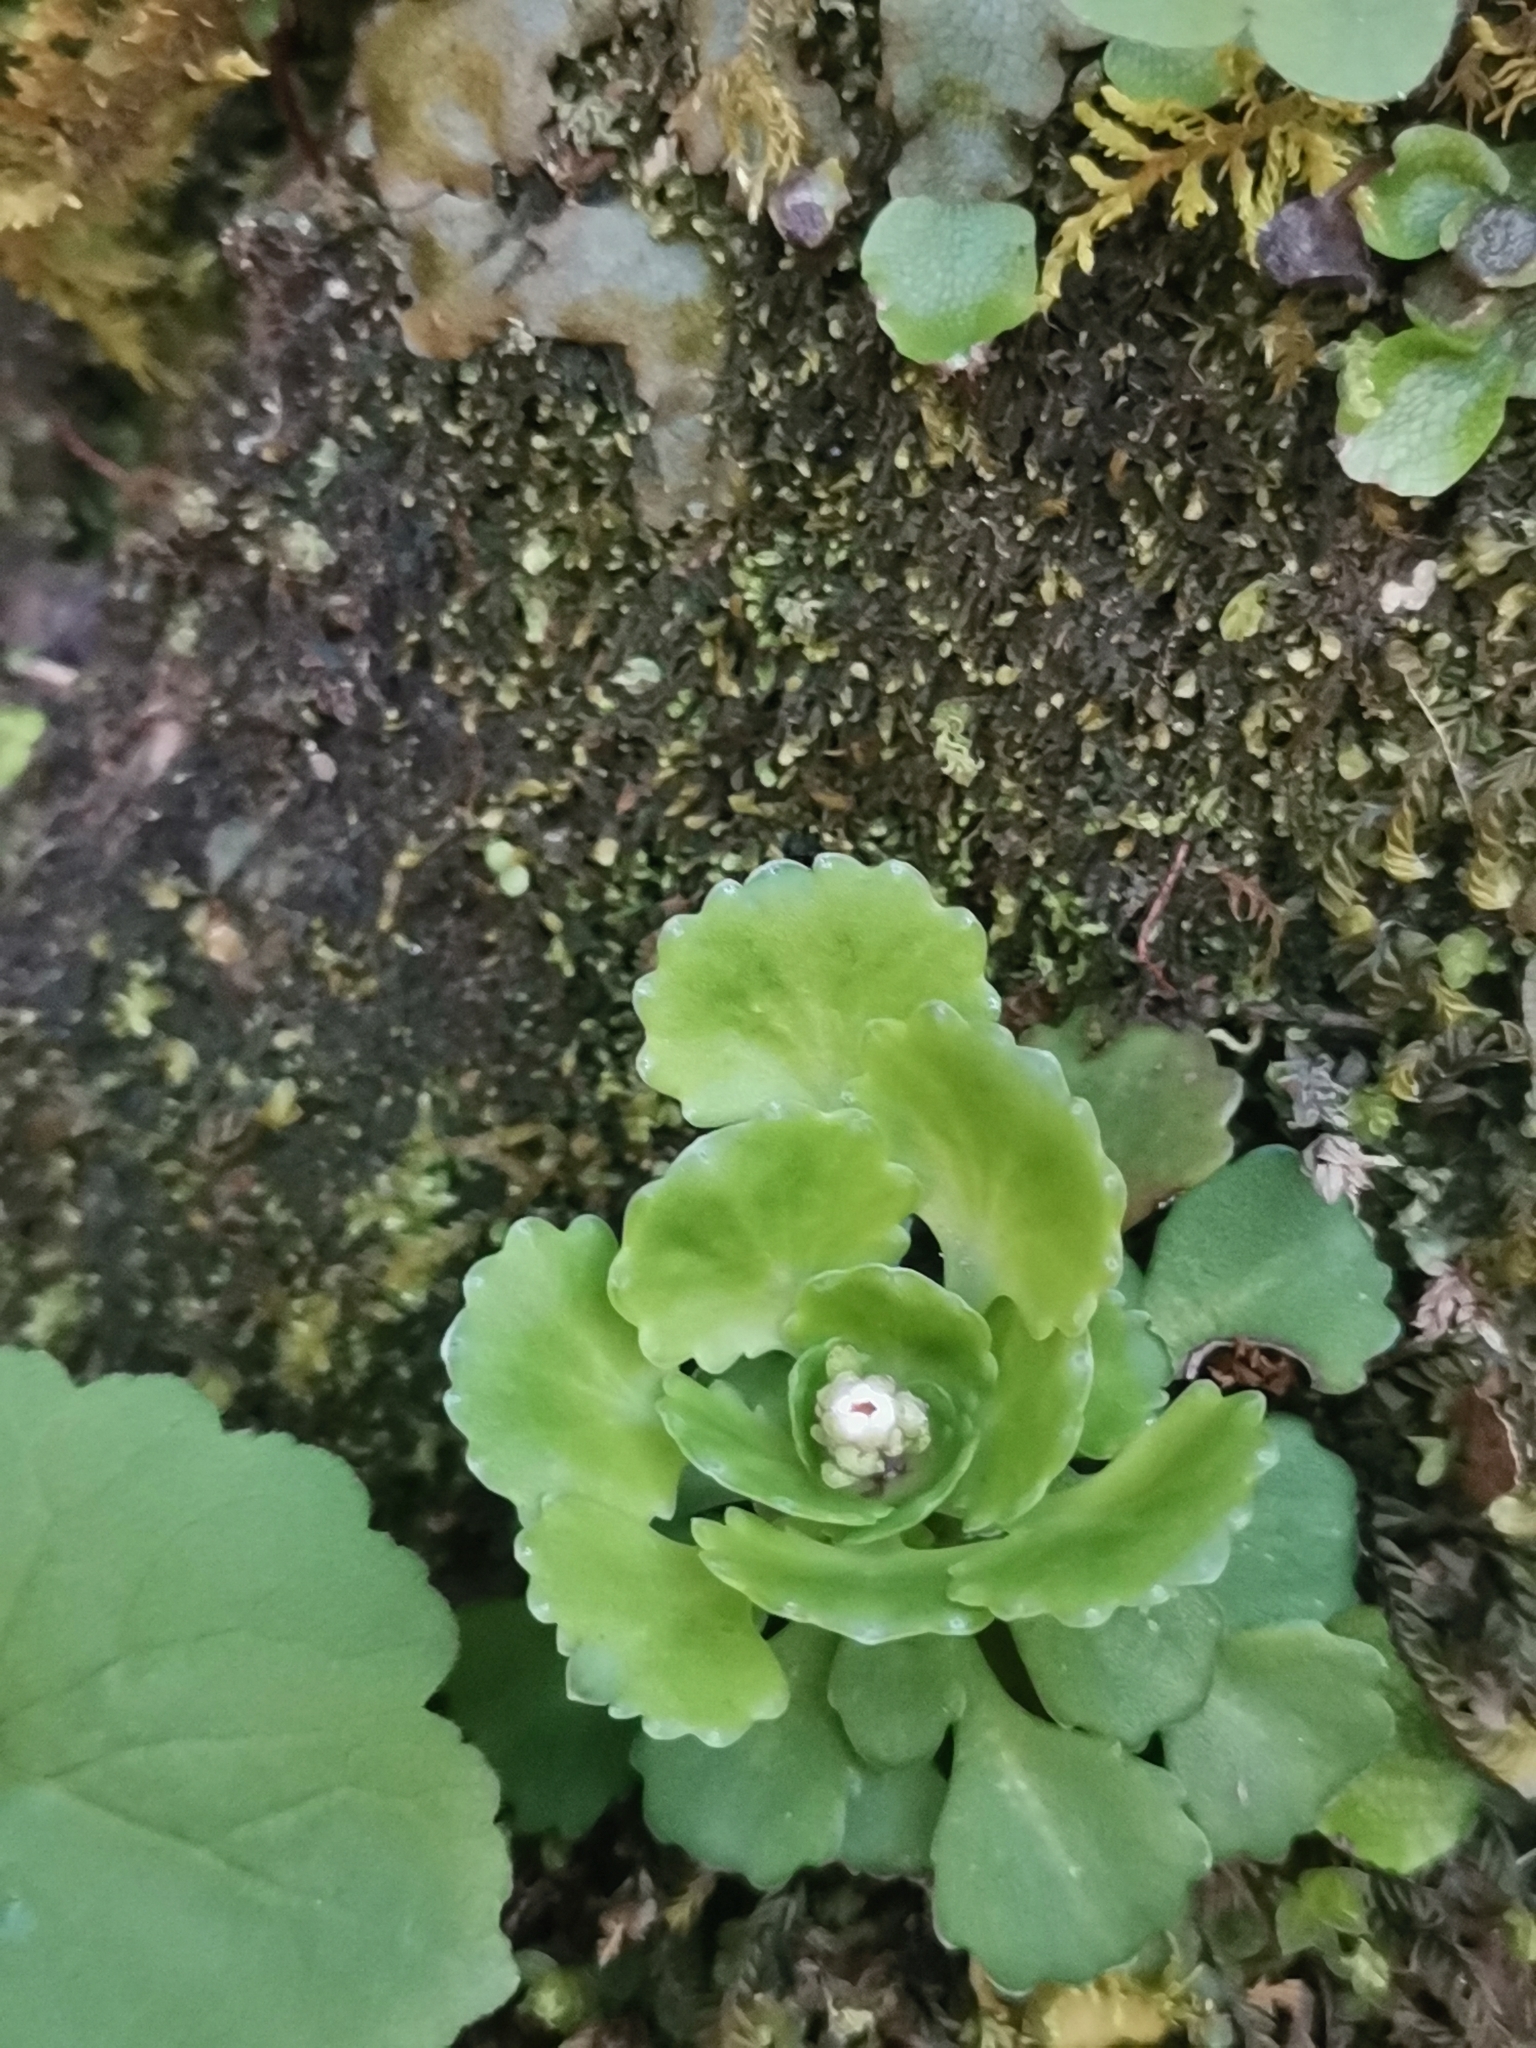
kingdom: Plantae
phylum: Tracheophyta
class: Magnoliopsida
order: Saxifragales
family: Saxifragaceae
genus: Saxifraga
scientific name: Saxifraga cuneifolia
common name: Lesser londonpride
